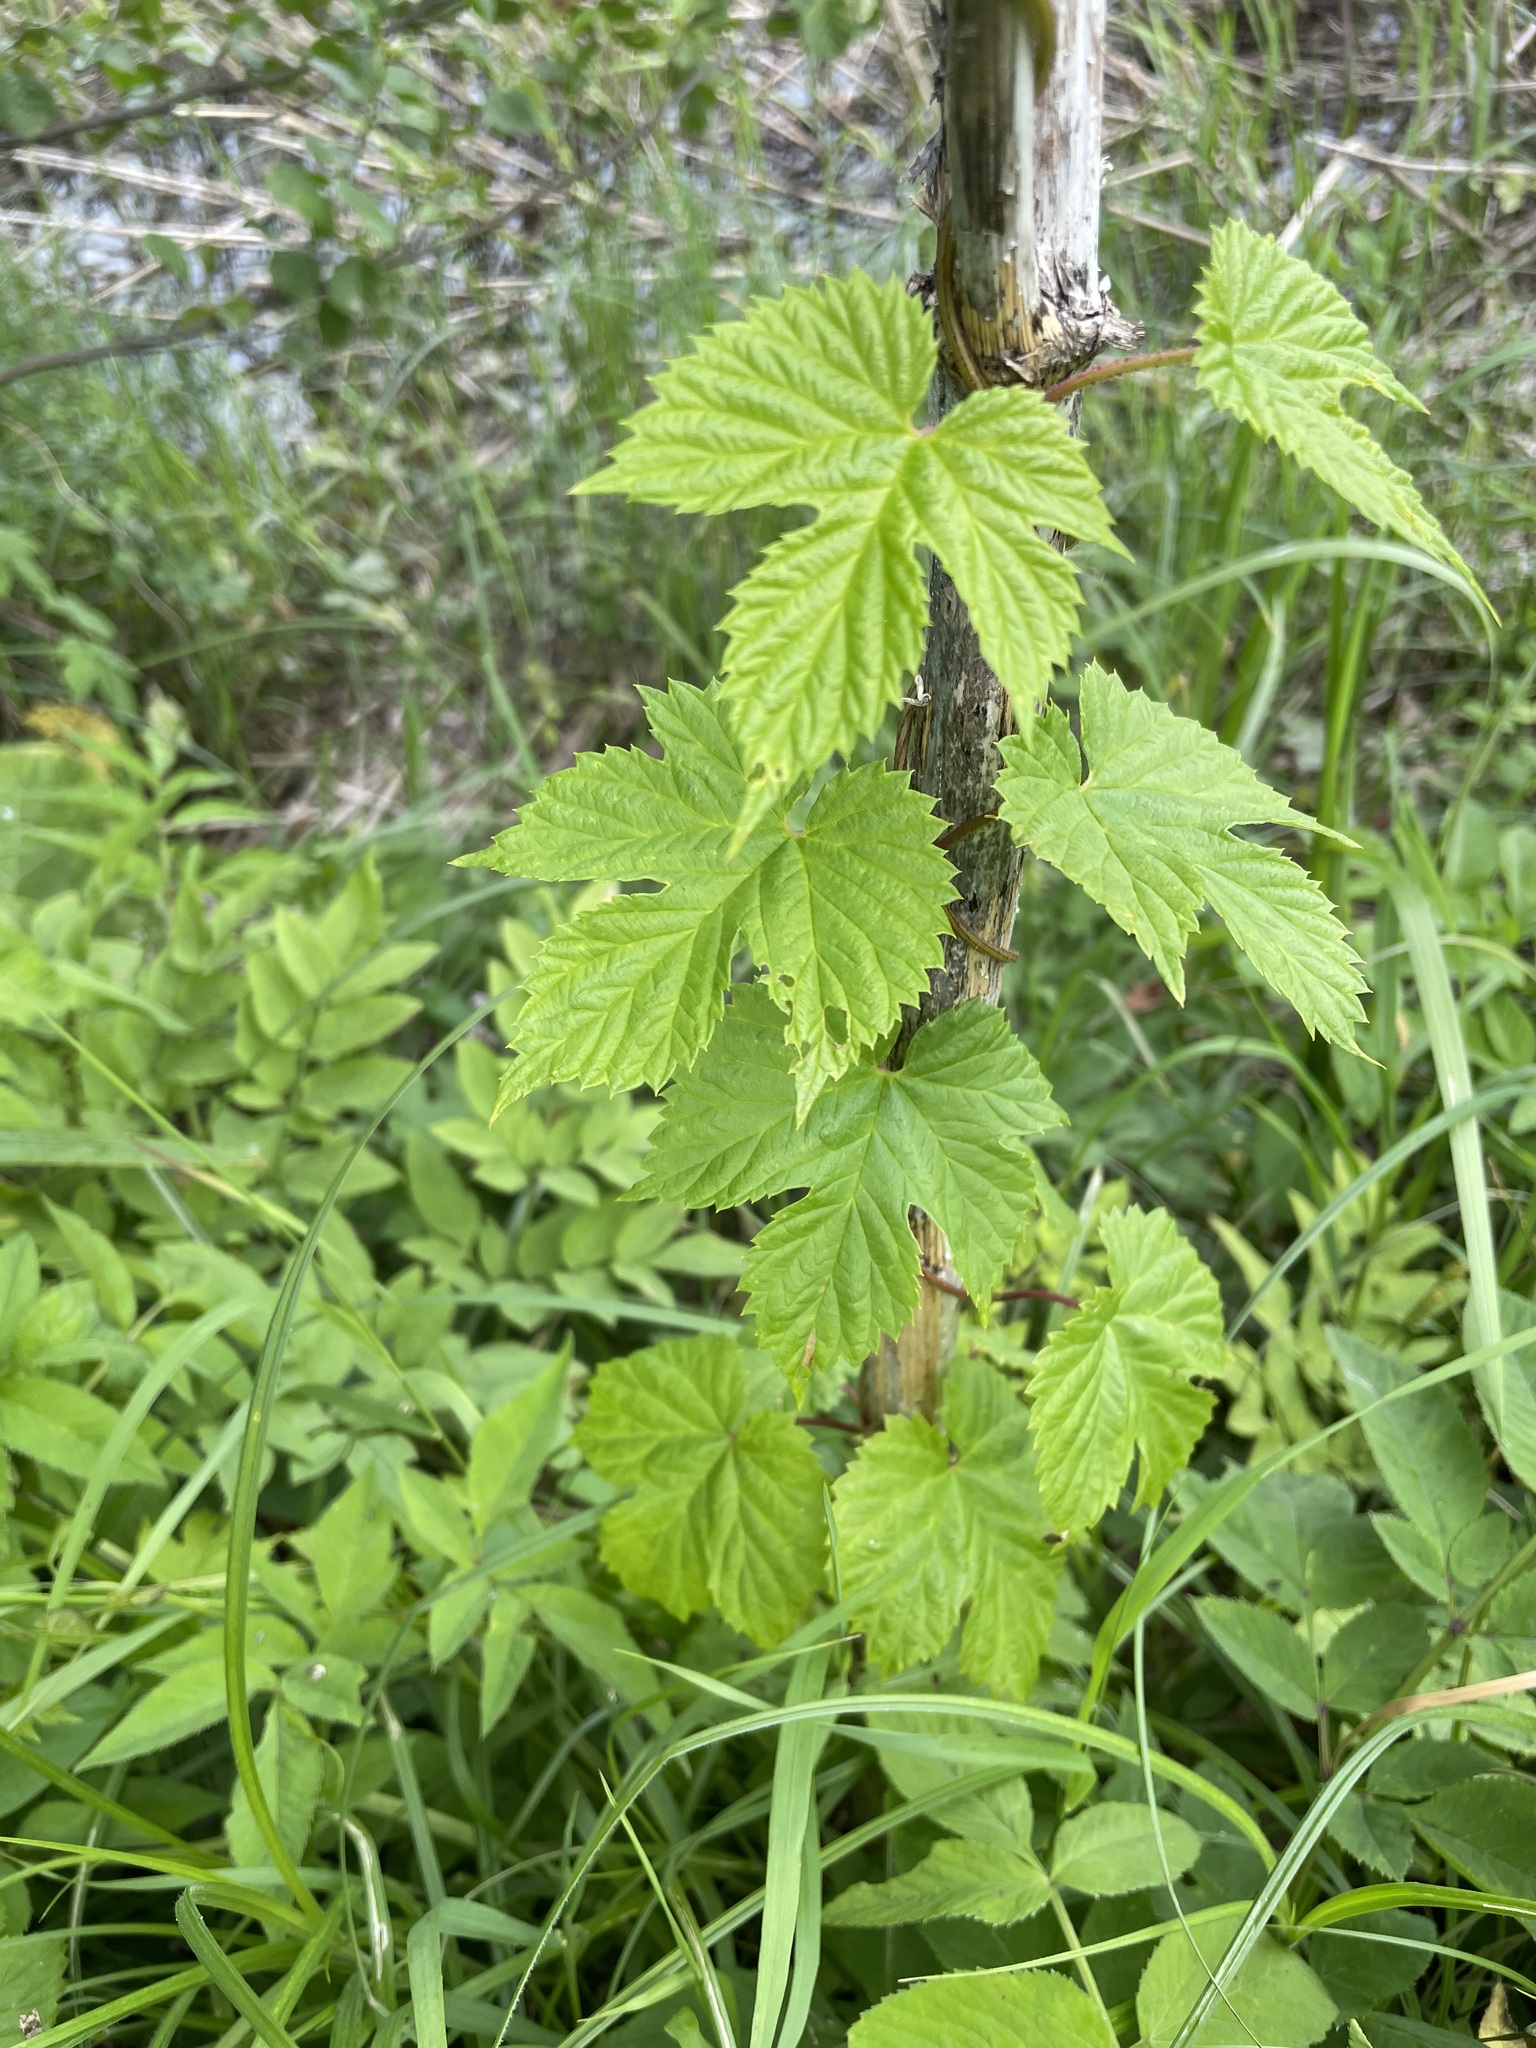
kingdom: Plantae
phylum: Tracheophyta
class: Magnoliopsida
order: Rosales
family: Cannabaceae
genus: Humulus
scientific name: Humulus lupulus
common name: Hop
